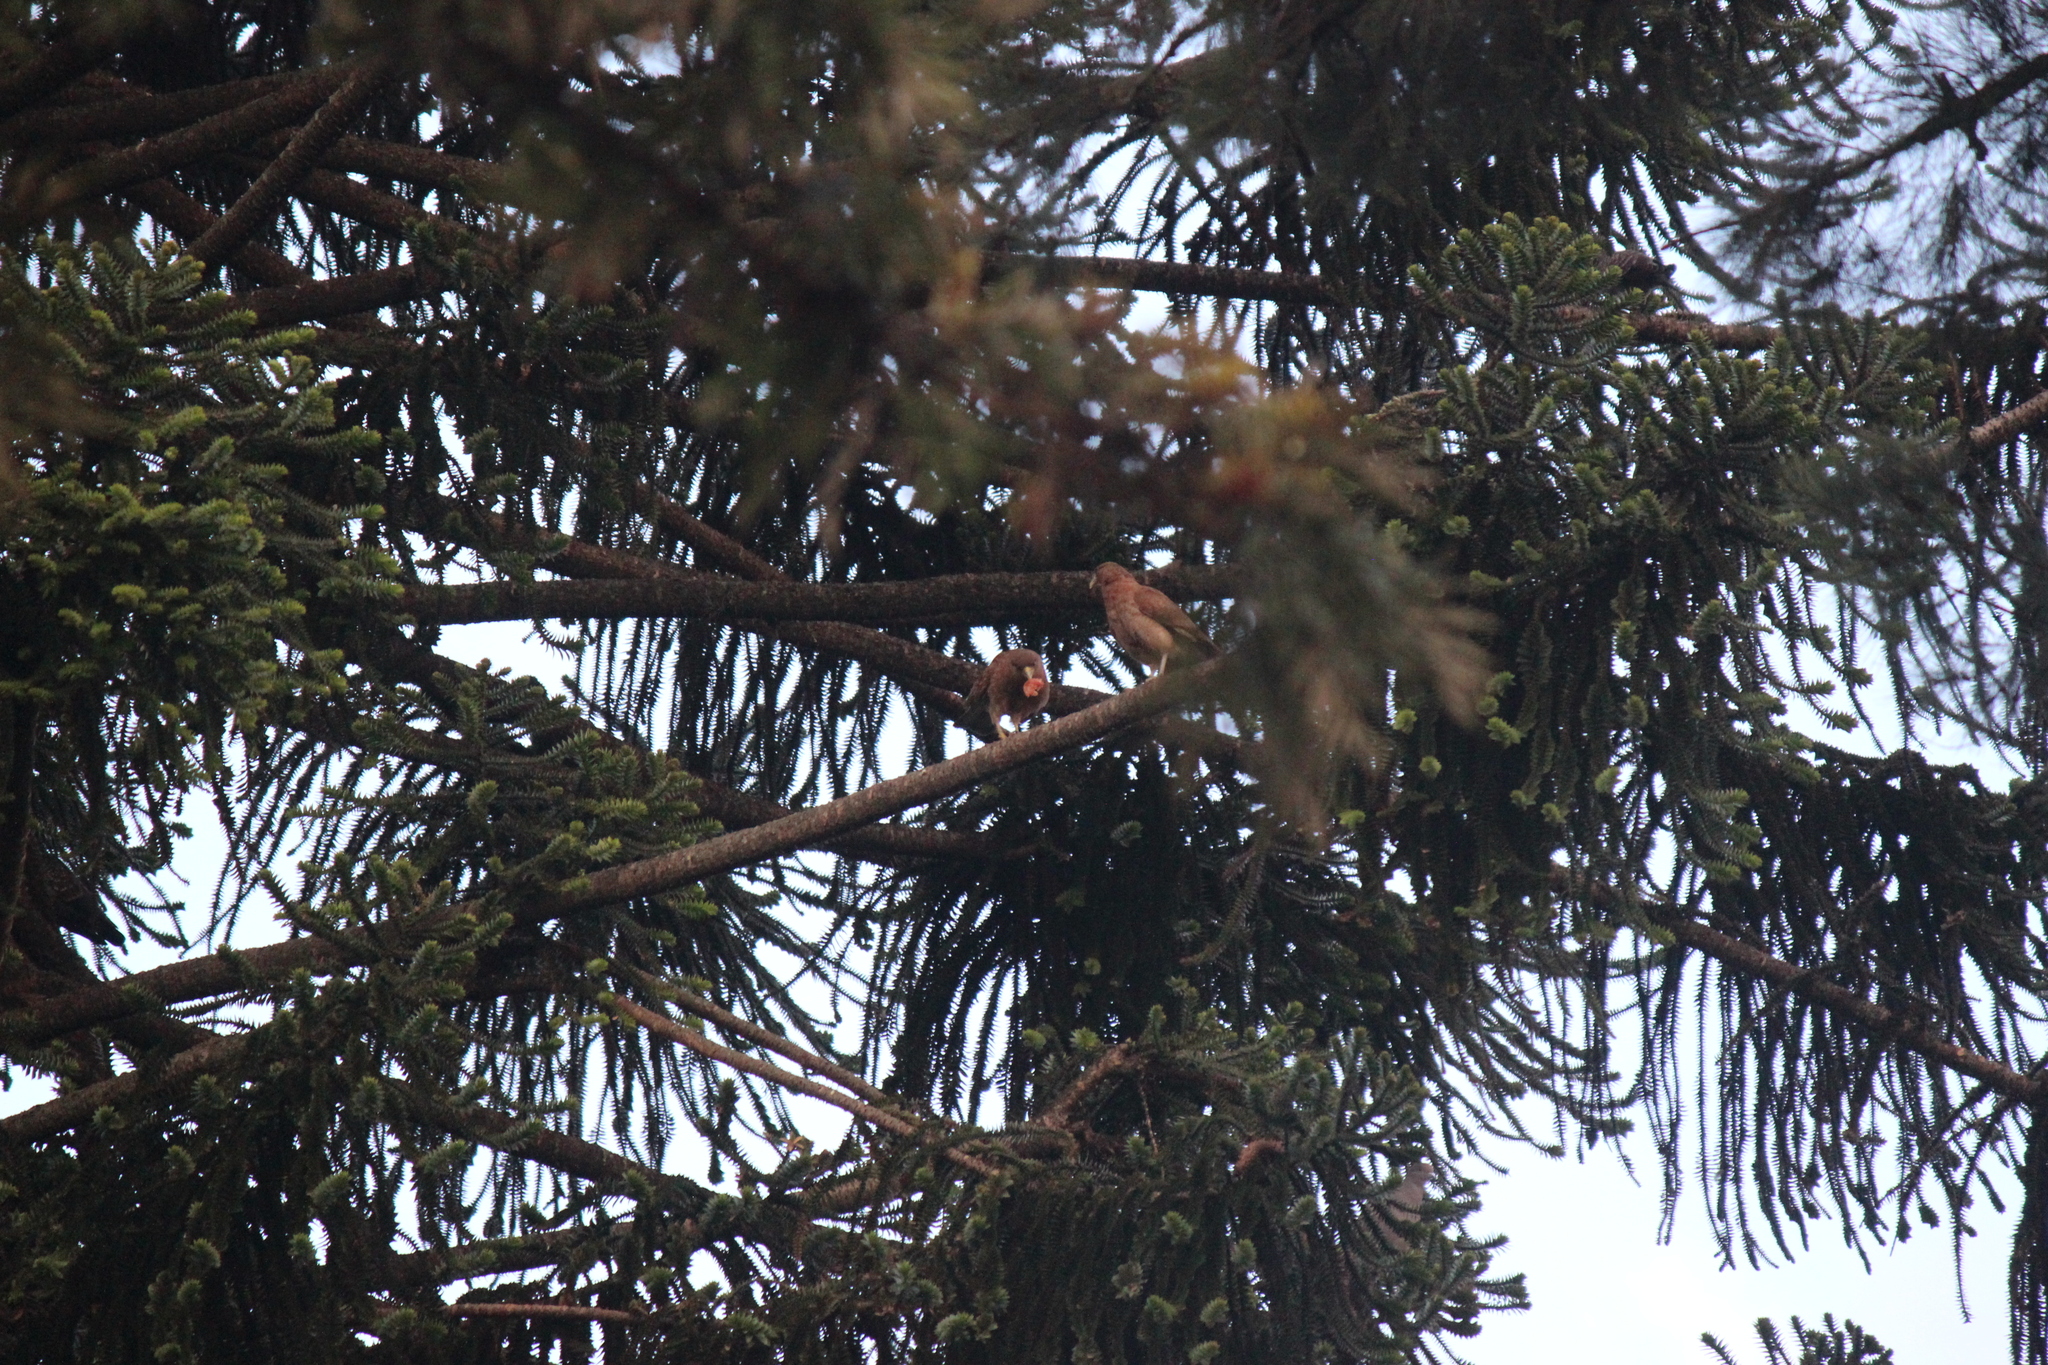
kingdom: Animalia
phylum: Chordata
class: Aves
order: Falconiformes
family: Falconidae
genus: Daptrius
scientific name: Daptrius
